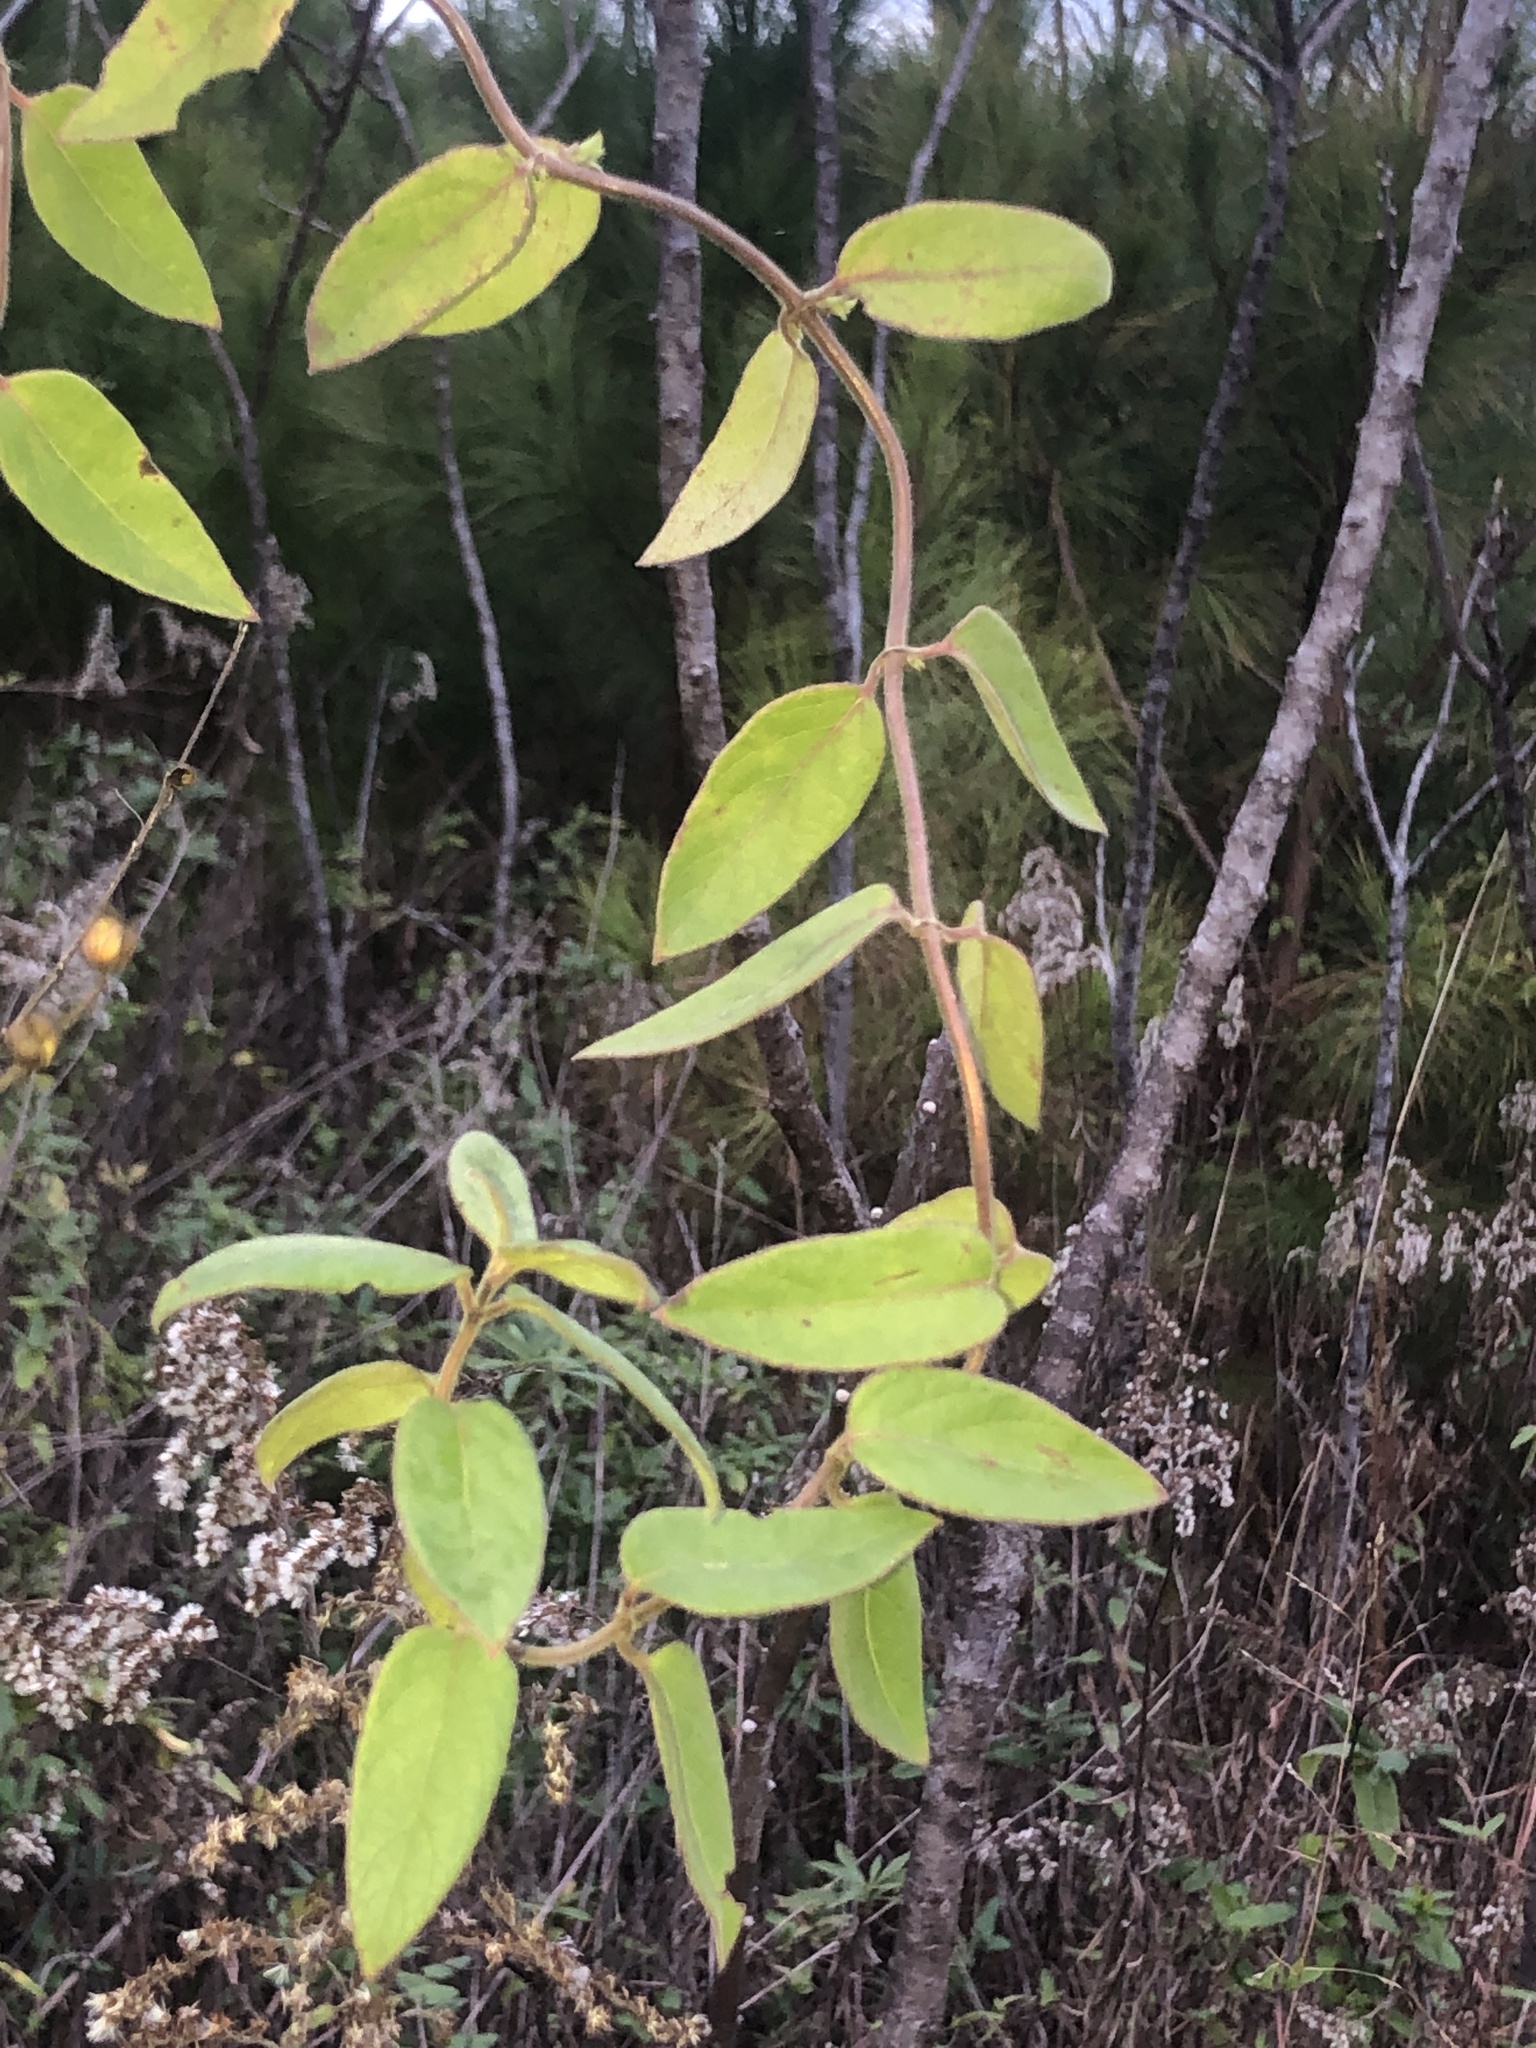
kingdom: Plantae
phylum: Tracheophyta
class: Magnoliopsida
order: Dipsacales
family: Caprifoliaceae
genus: Lonicera
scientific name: Lonicera japonica
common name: Japanese honeysuckle
